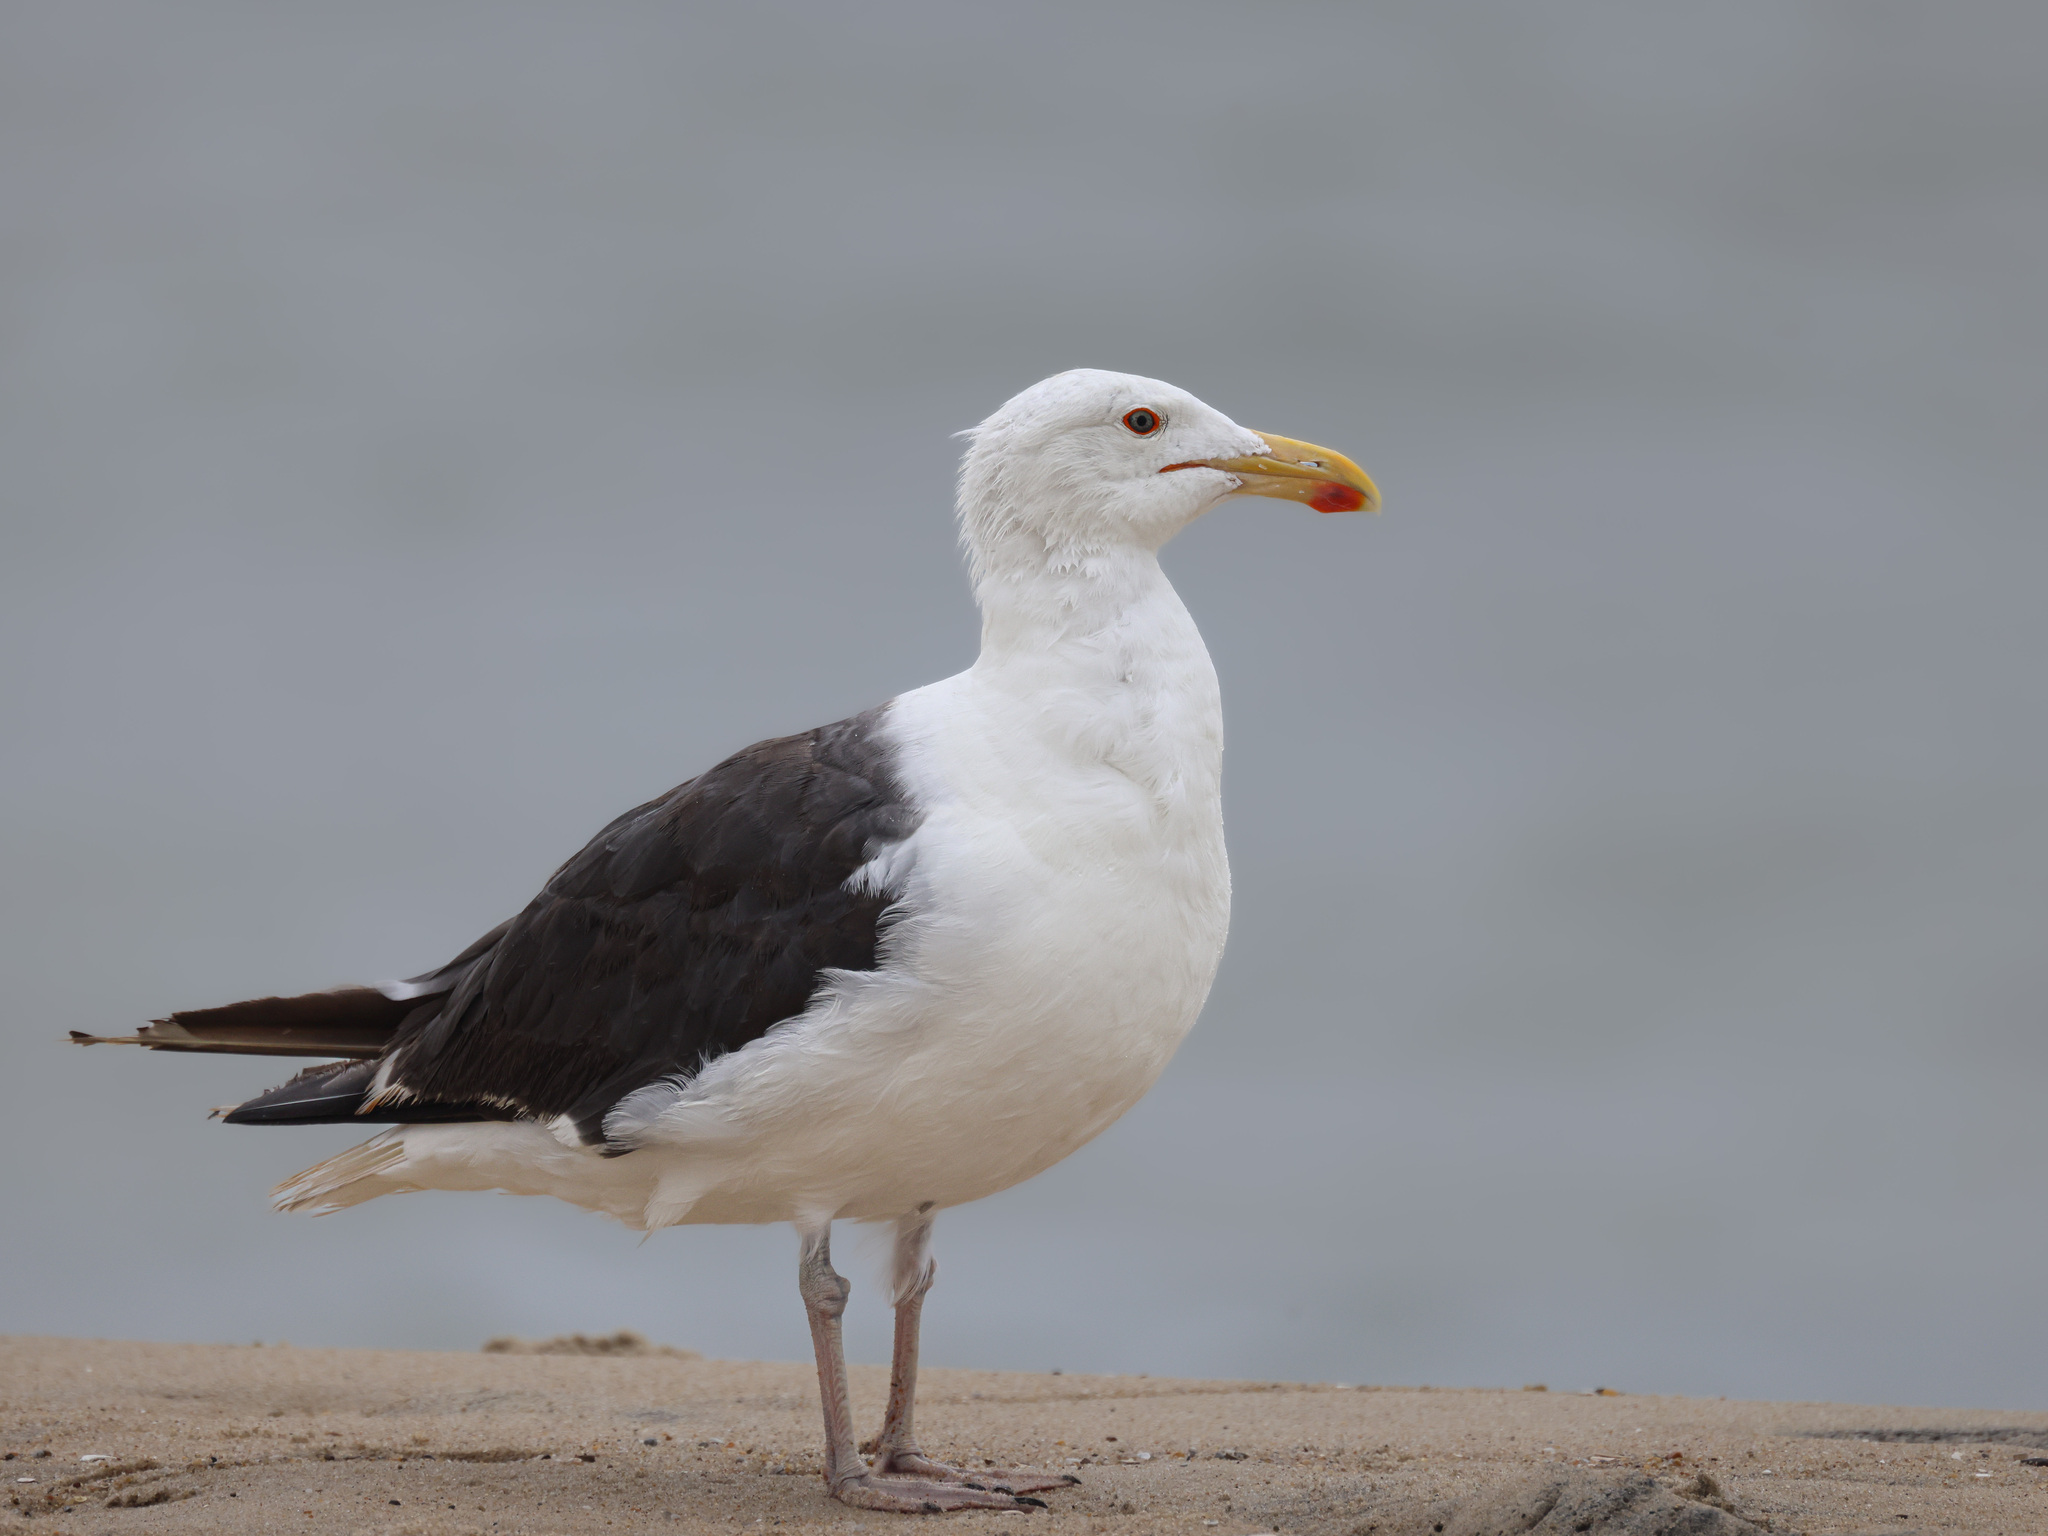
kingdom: Animalia
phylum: Chordata
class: Aves
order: Charadriiformes
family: Laridae
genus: Larus
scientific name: Larus marinus
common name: Great black-backed gull
